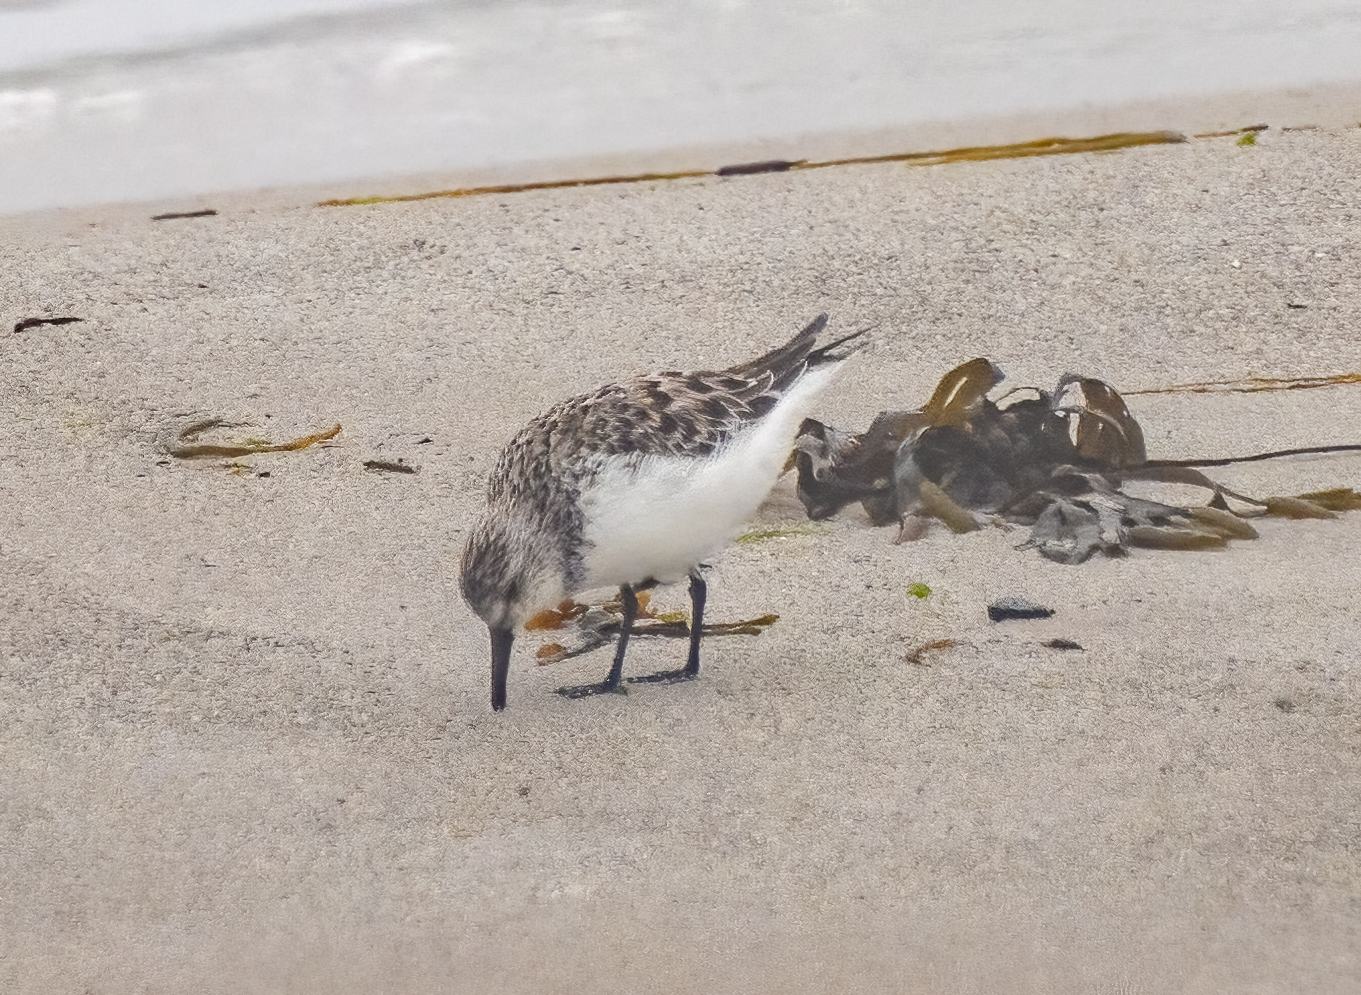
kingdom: Animalia
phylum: Chordata
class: Aves
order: Charadriiformes
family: Scolopacidae
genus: Calidris
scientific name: Calidris alba
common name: Sanderling
